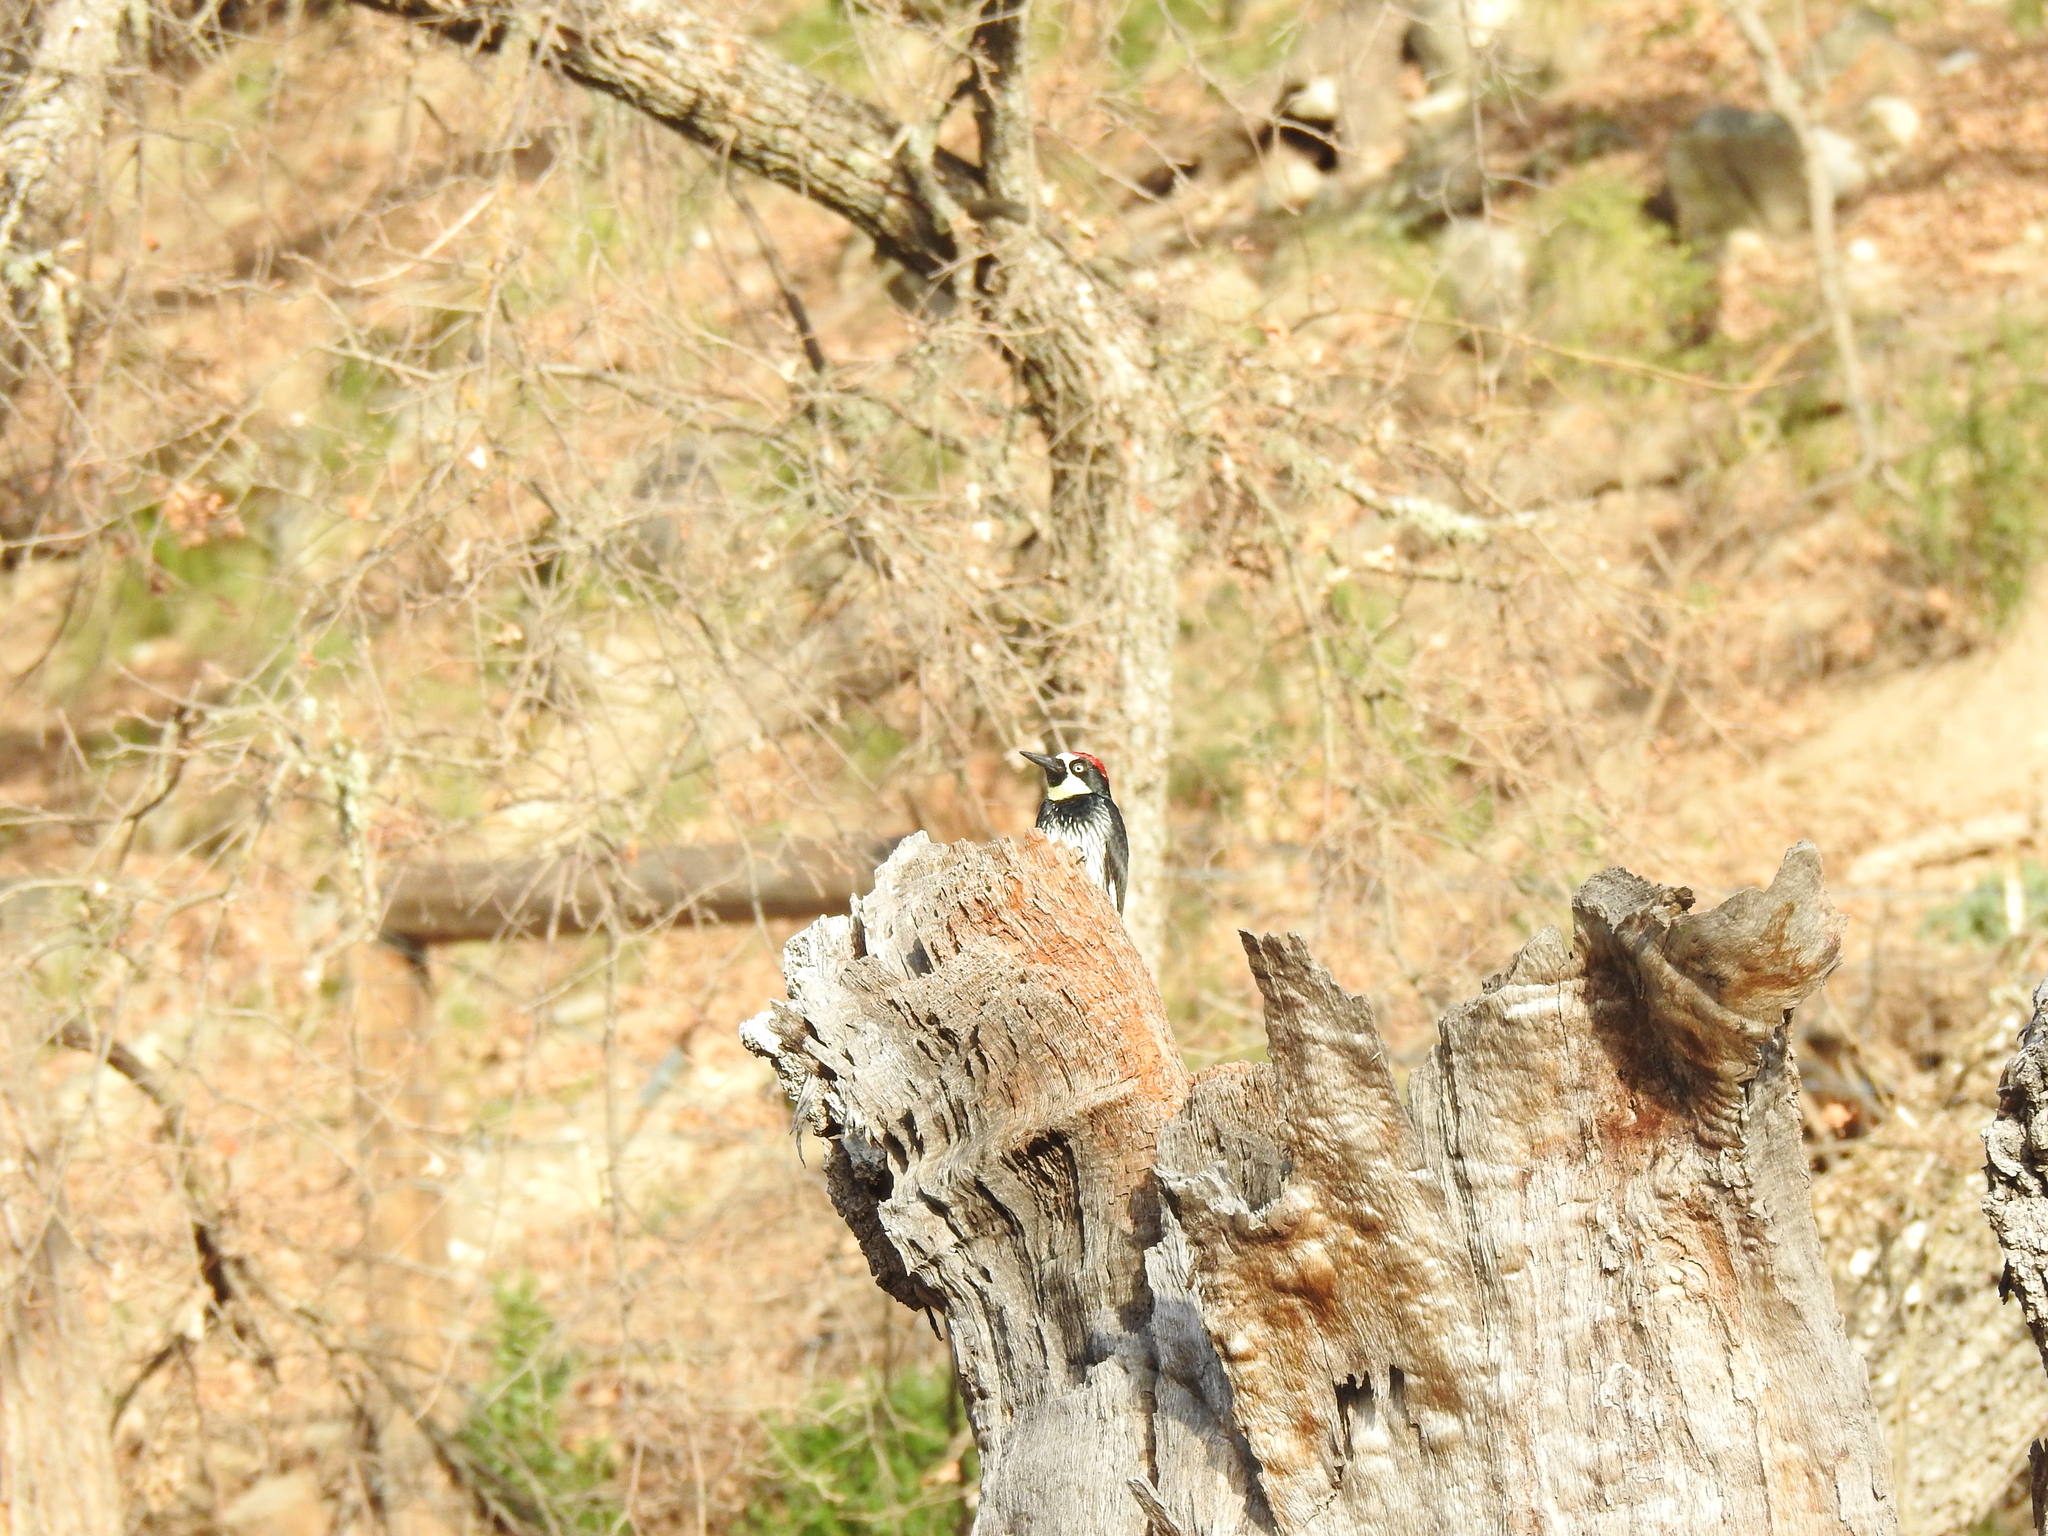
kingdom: Animalia
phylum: Chordata
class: Aves
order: Piciformes
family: Picidae
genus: Melanerpes
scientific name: Melanerpes formicivorus
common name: Acorn woodpecker
